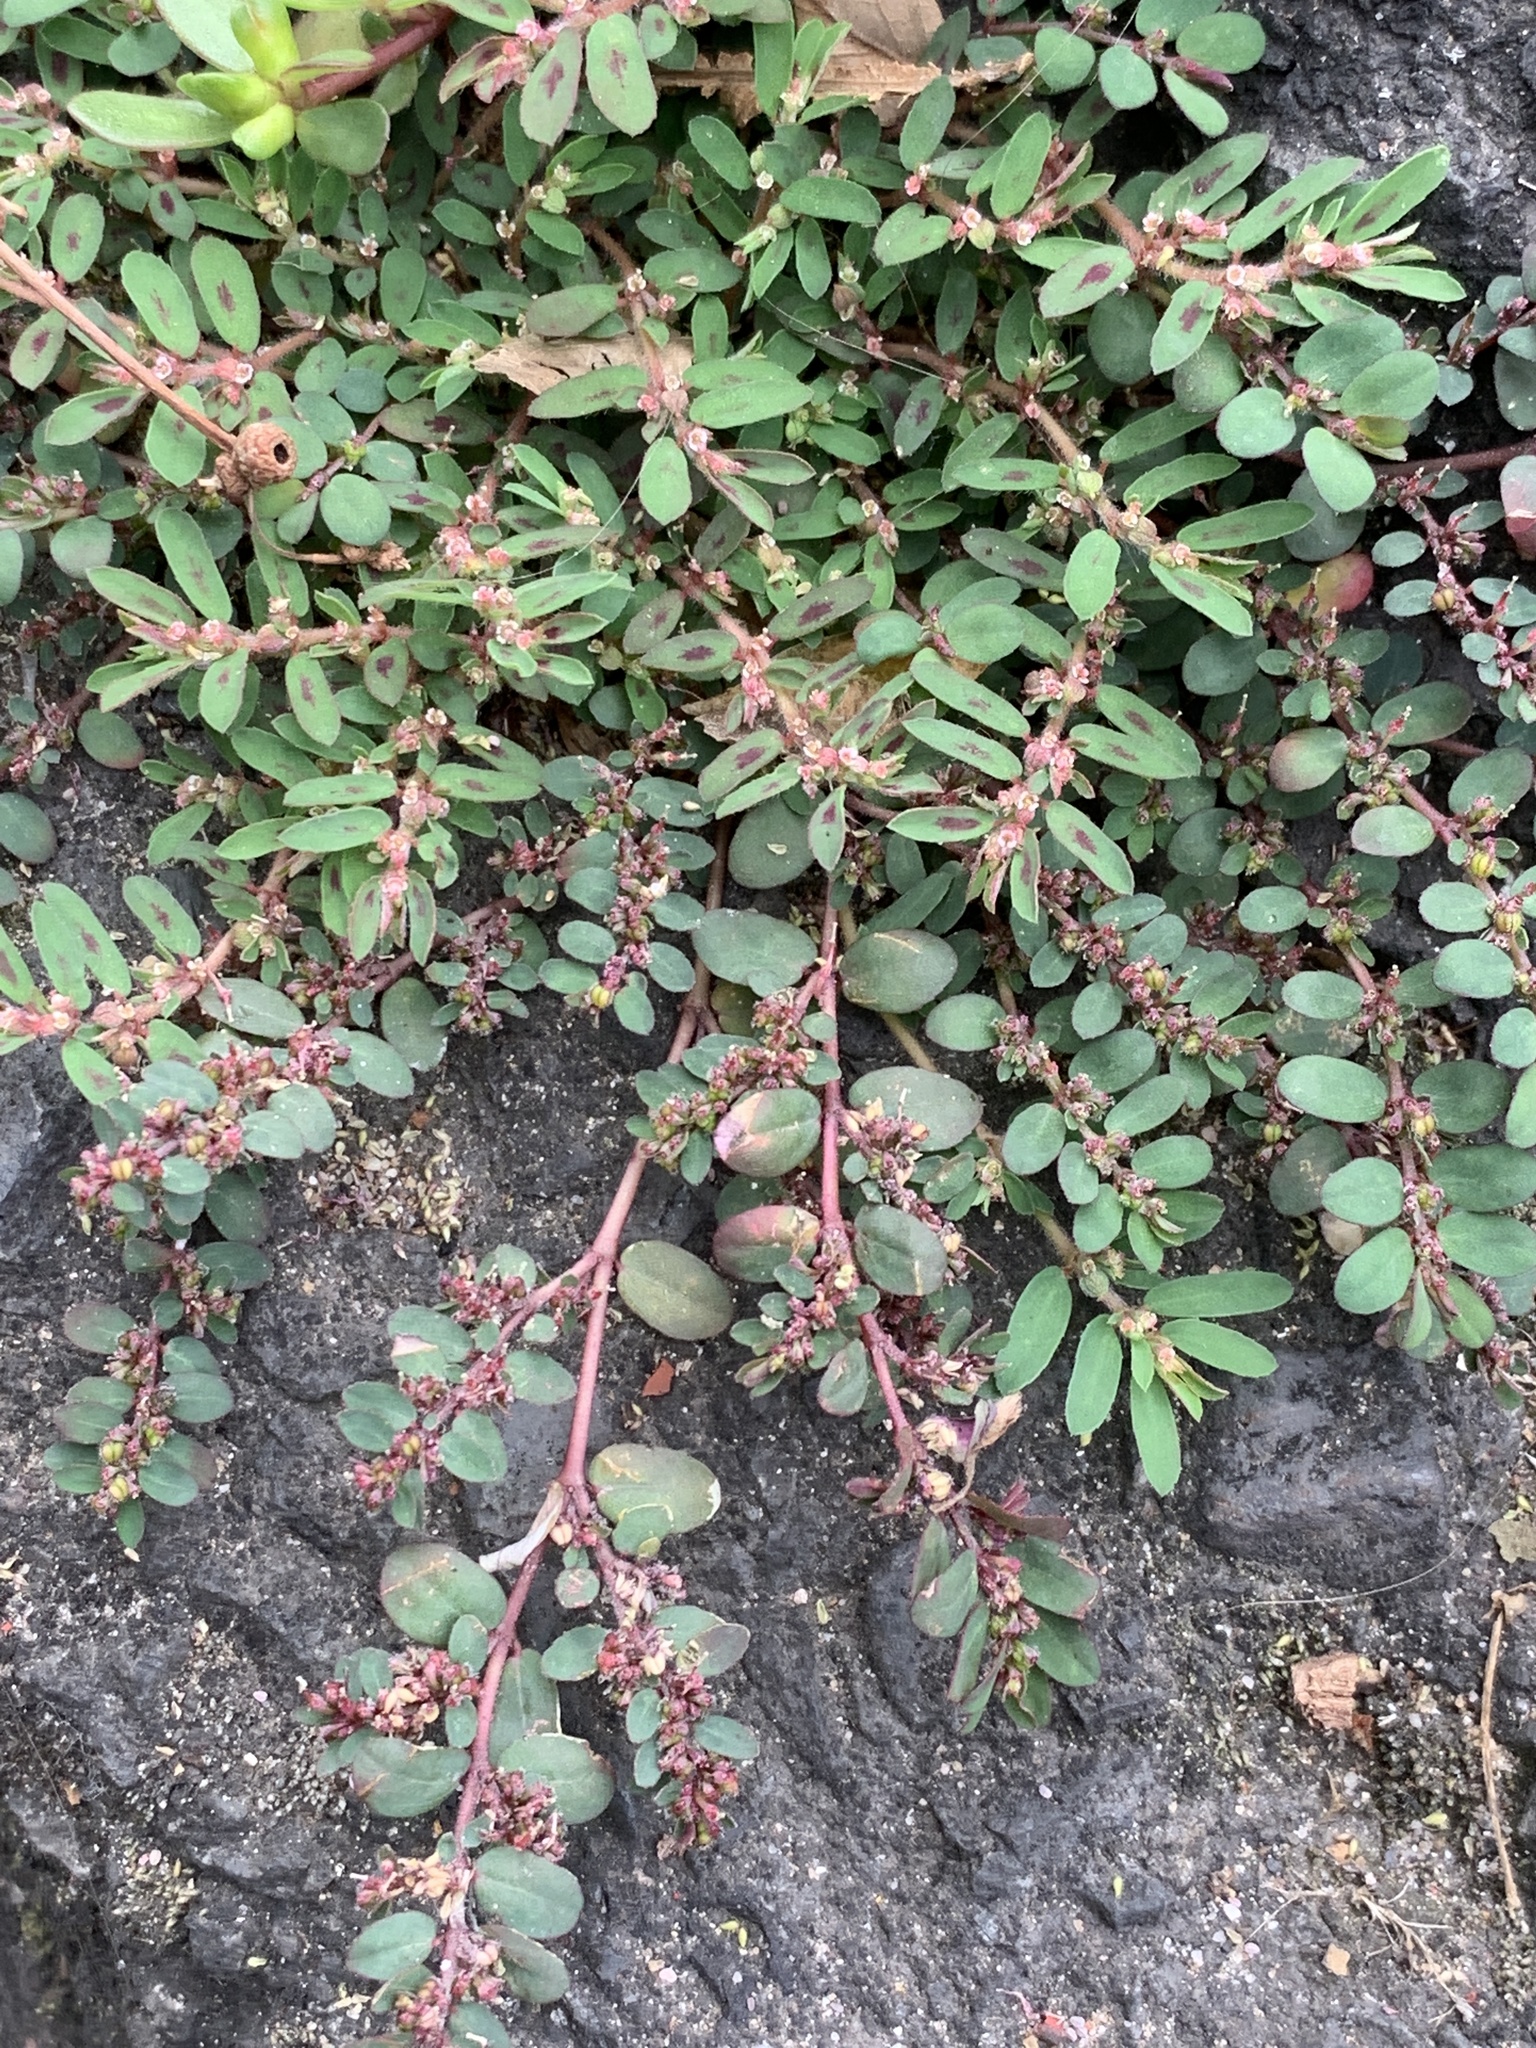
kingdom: Plantae
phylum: Tracheophyta
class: Magnoliopsida
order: Malpighiales
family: Euphorbiaceae
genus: Euphorbia
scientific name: Euphorbia maculata
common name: Spotted spurge
